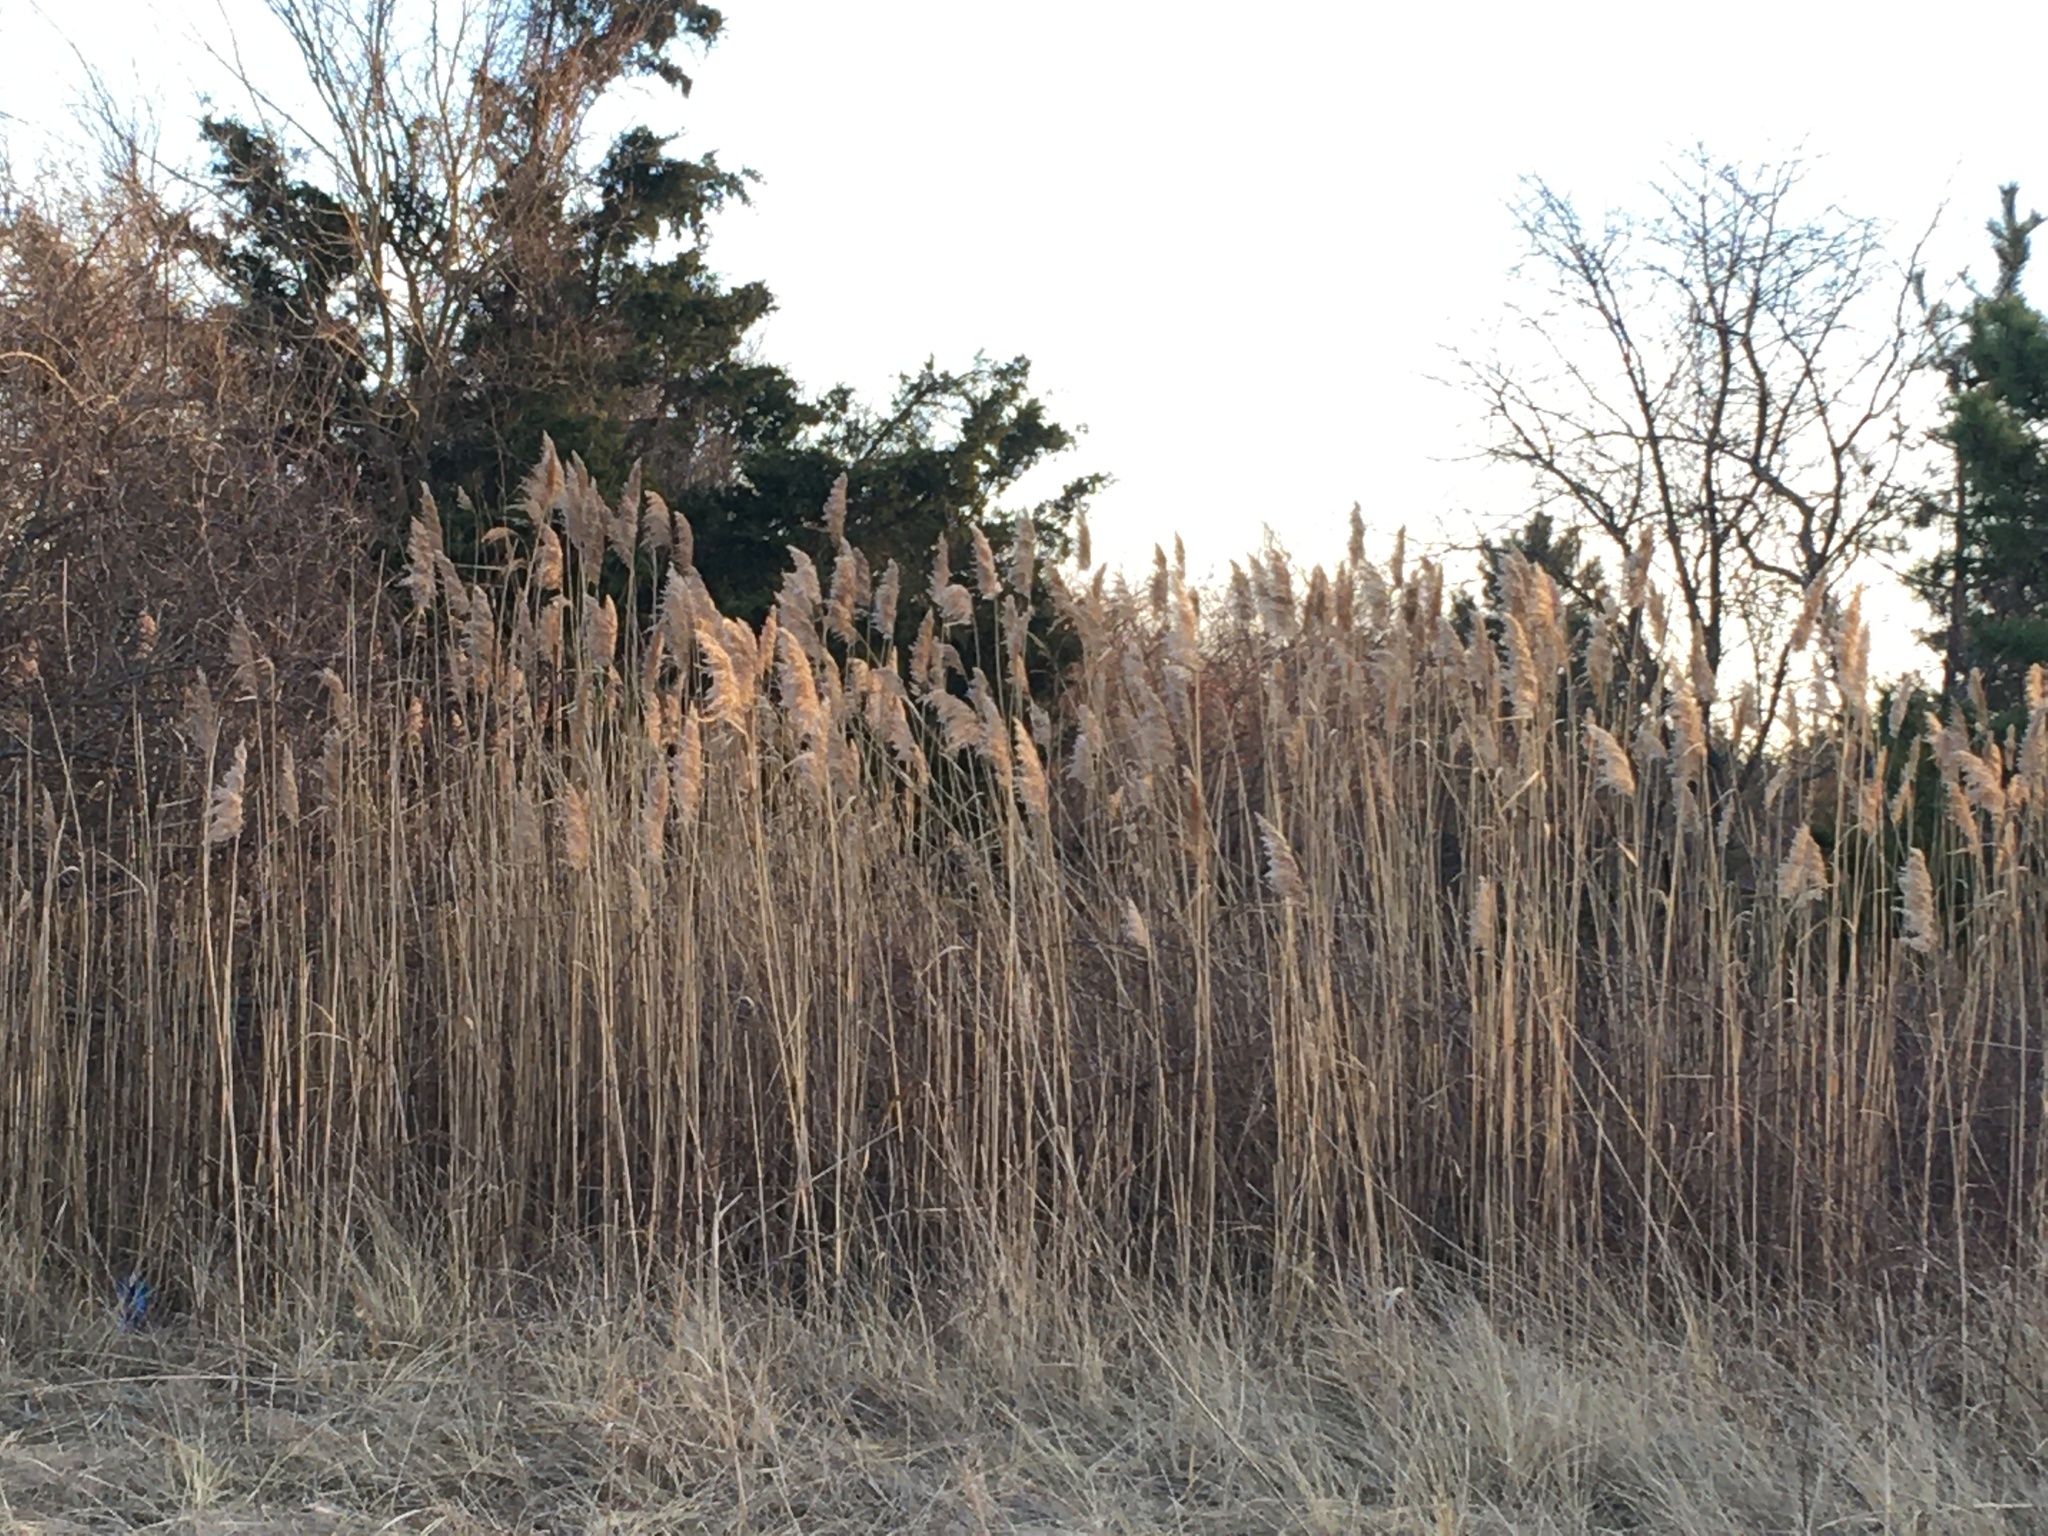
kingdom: Plantae
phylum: Tracheophyta
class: Liliopsida
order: Poales
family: Poaceae
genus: Phragmites
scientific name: Phragmites australis
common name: Common reed
